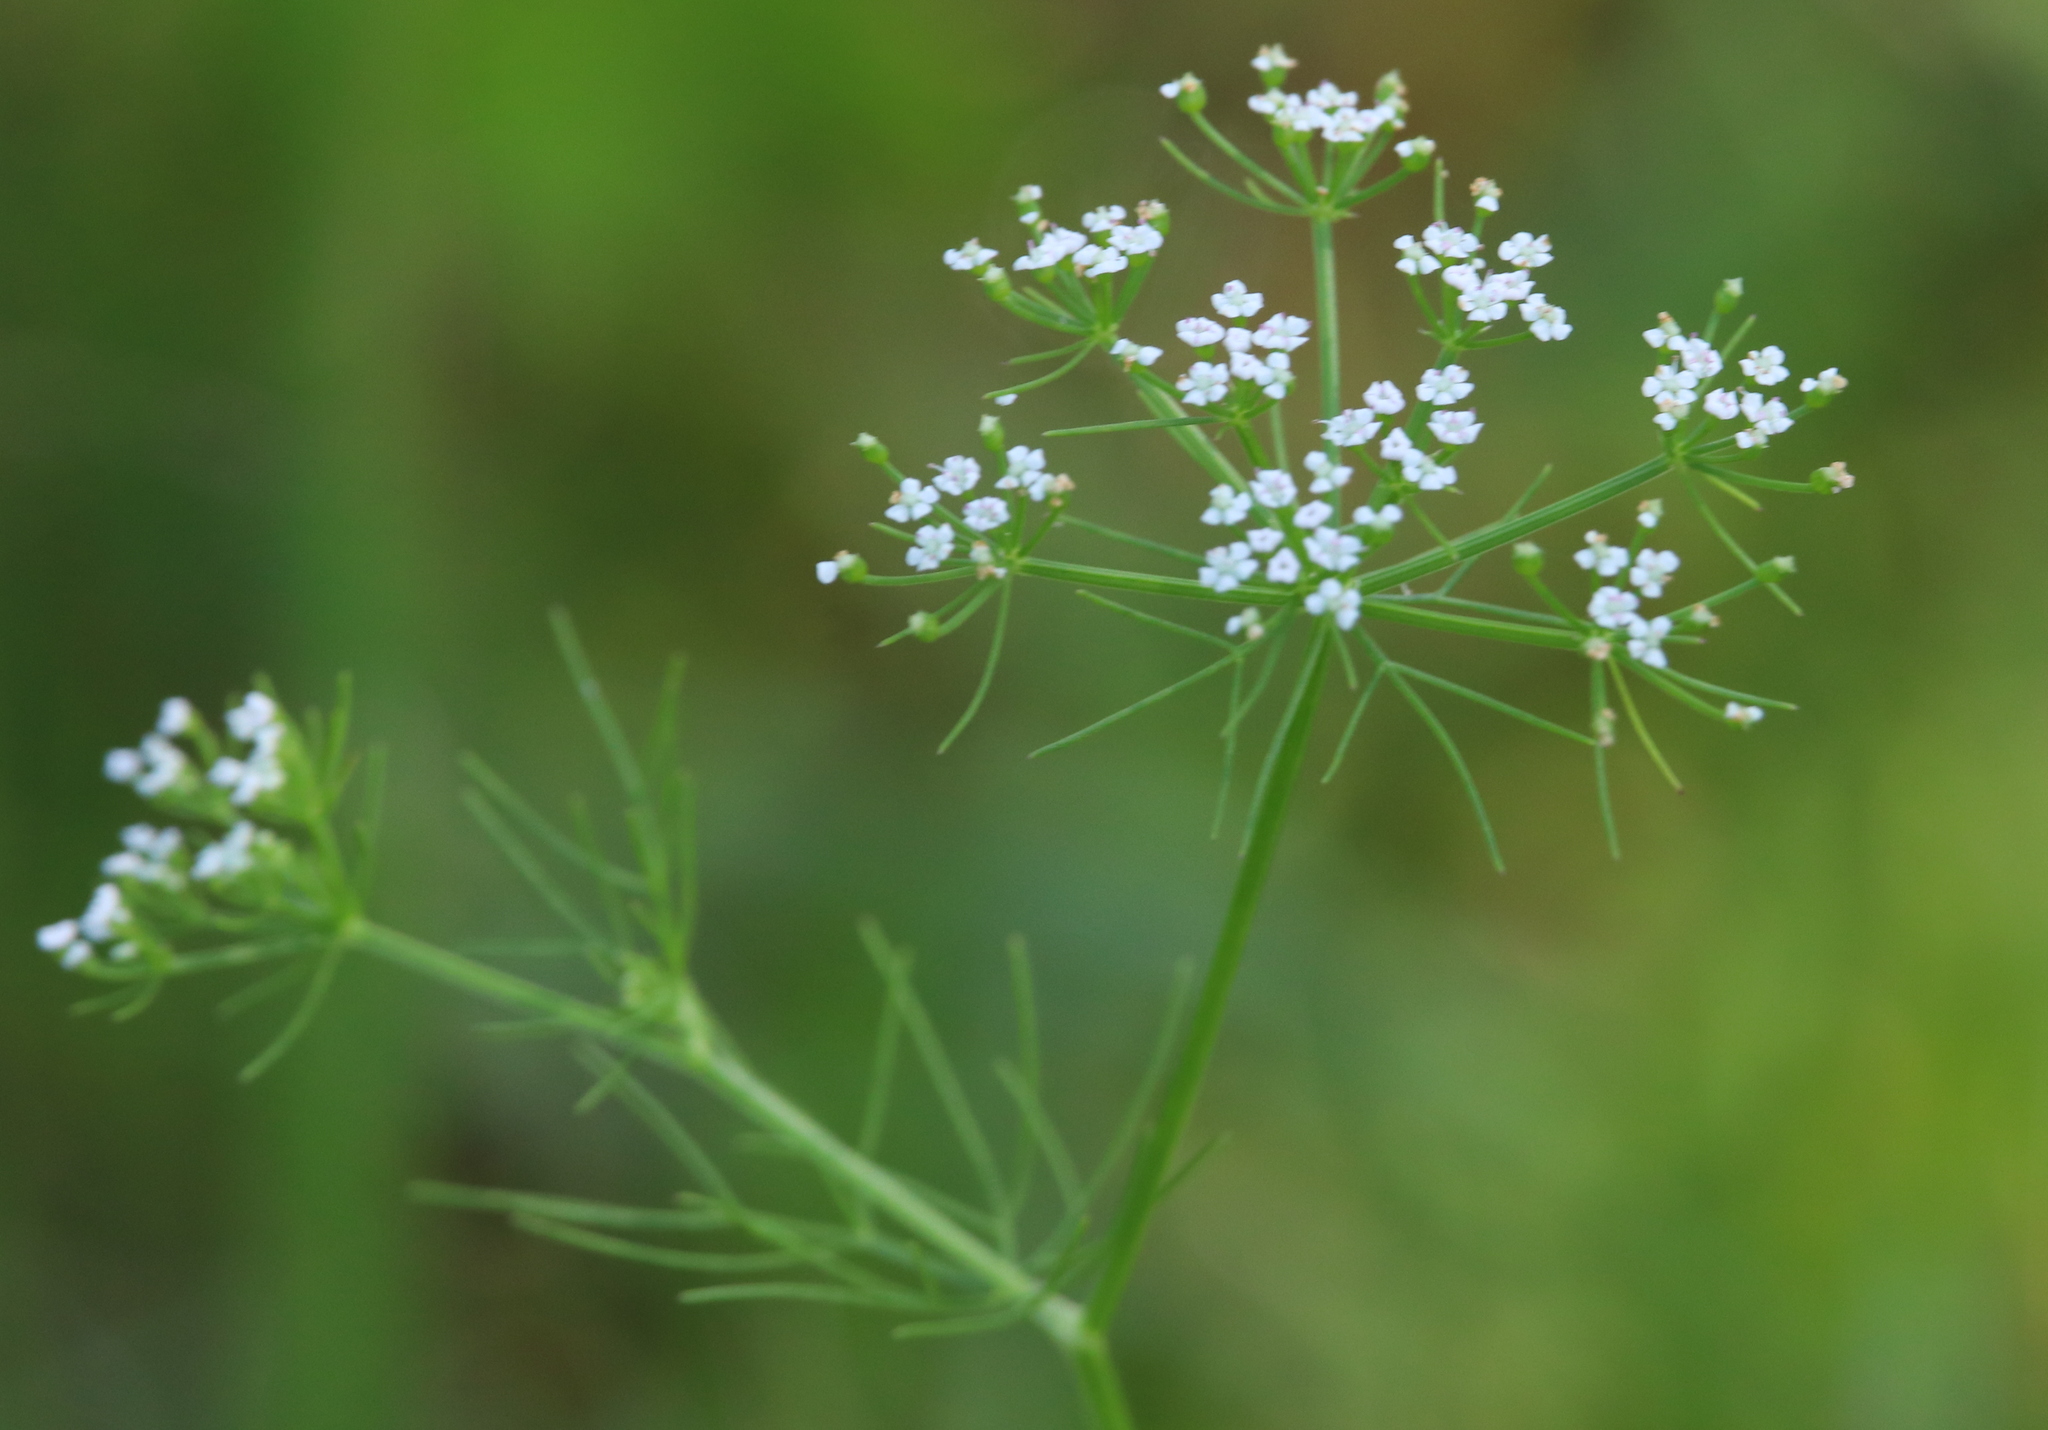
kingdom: Plantae
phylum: Tracheophyta
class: Magnoliopsida
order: Apiales
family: Apiaceae
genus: Ptilimnium
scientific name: Ptilimnium capillaceum
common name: Herbwilliam
